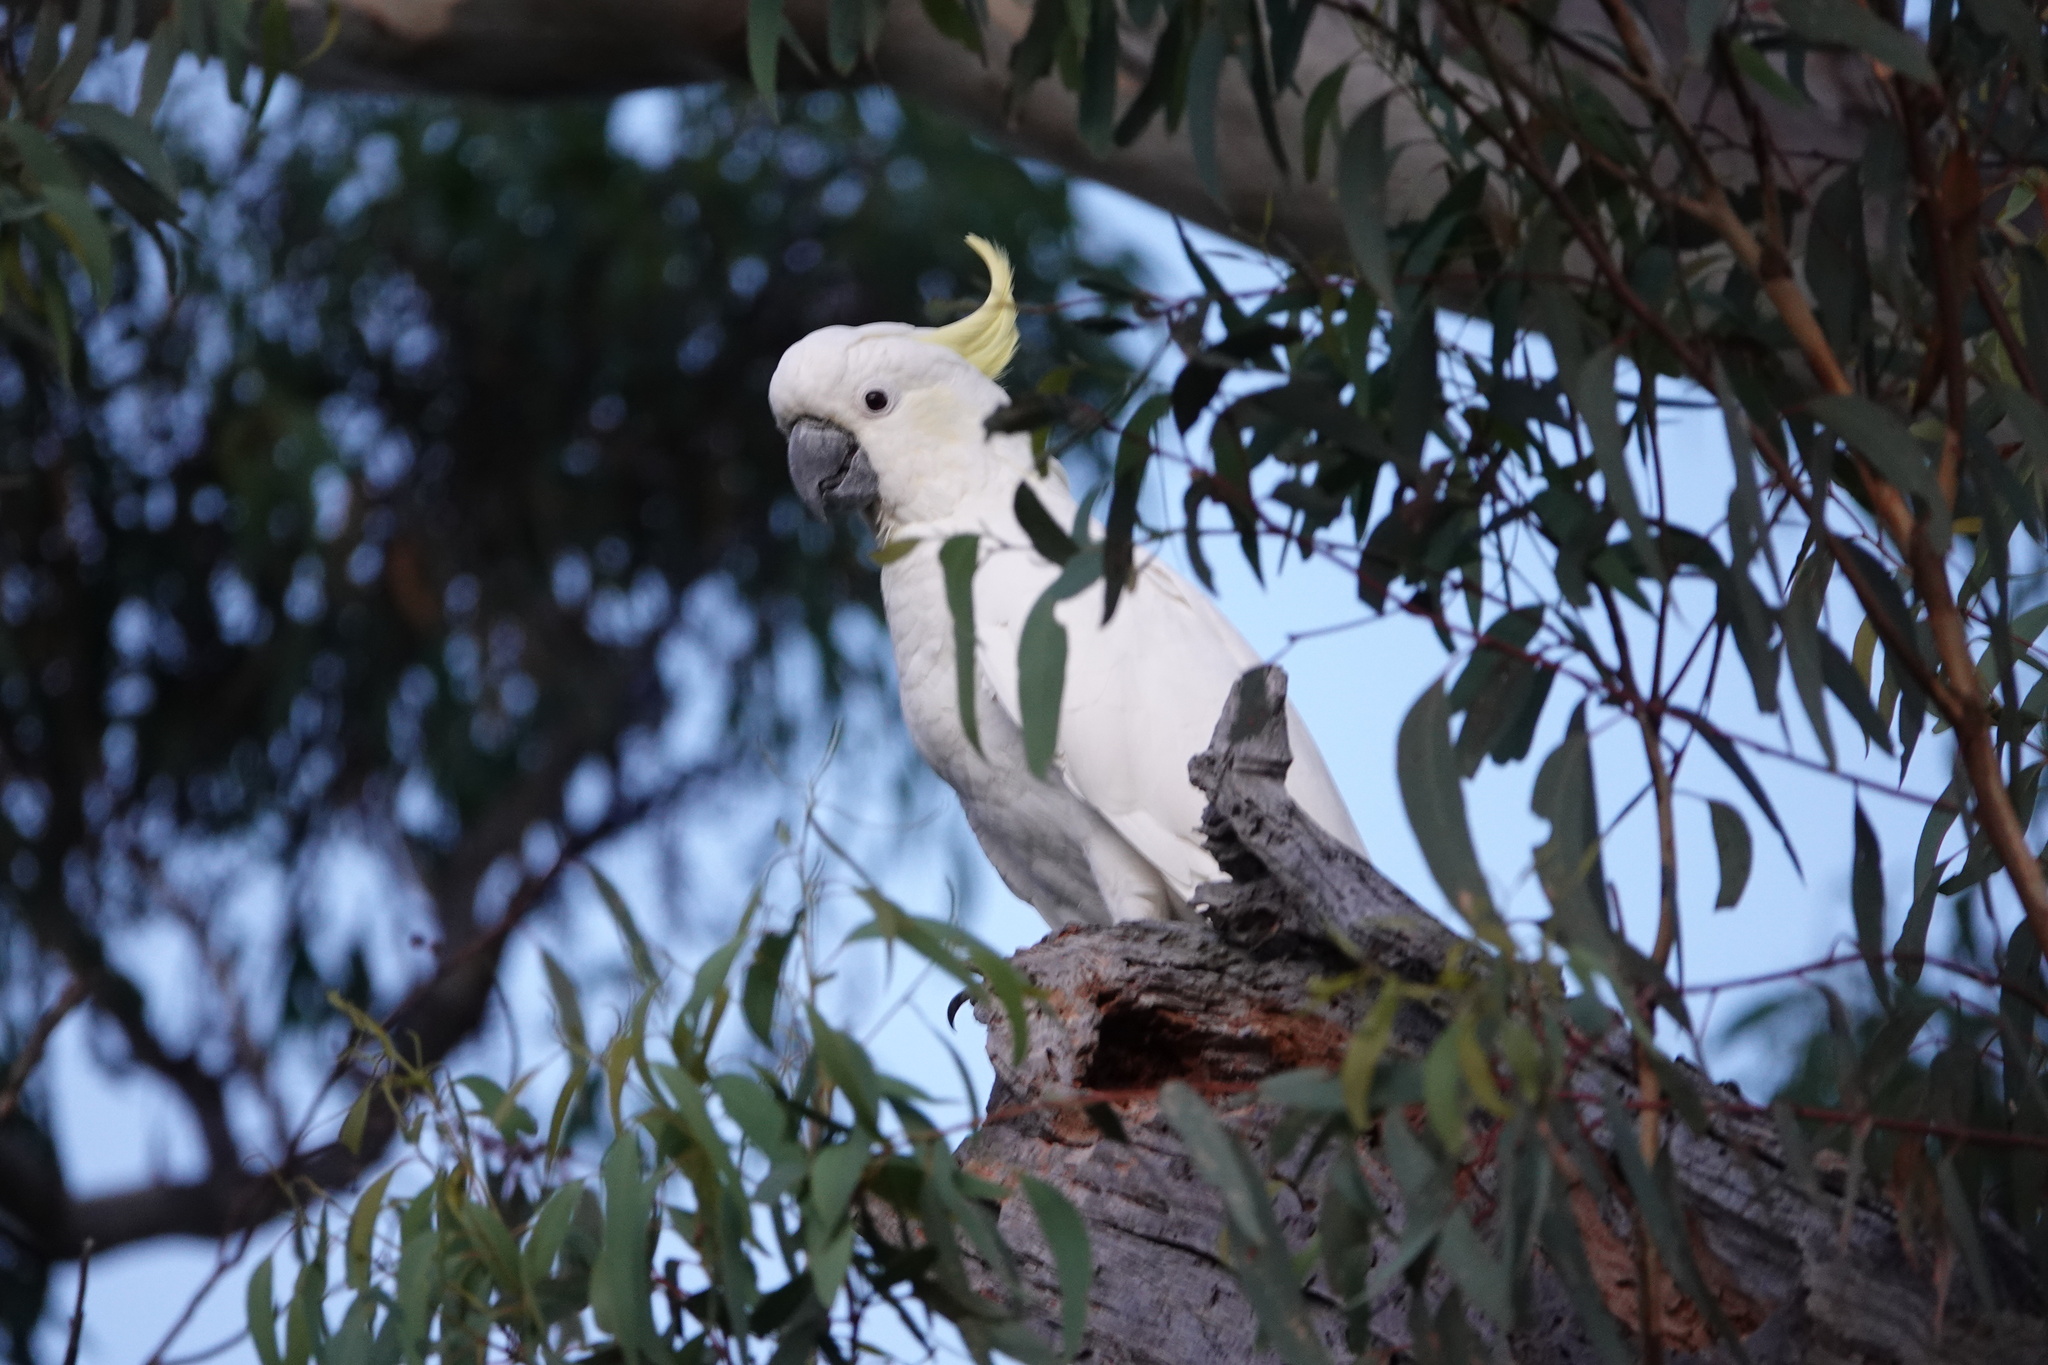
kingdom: Animalia
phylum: Chordata
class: Aves
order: Psittaciformes
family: Psittacidae
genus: Cacatua
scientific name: Cacatua galerita
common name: Sulphur-crested cockatoo
